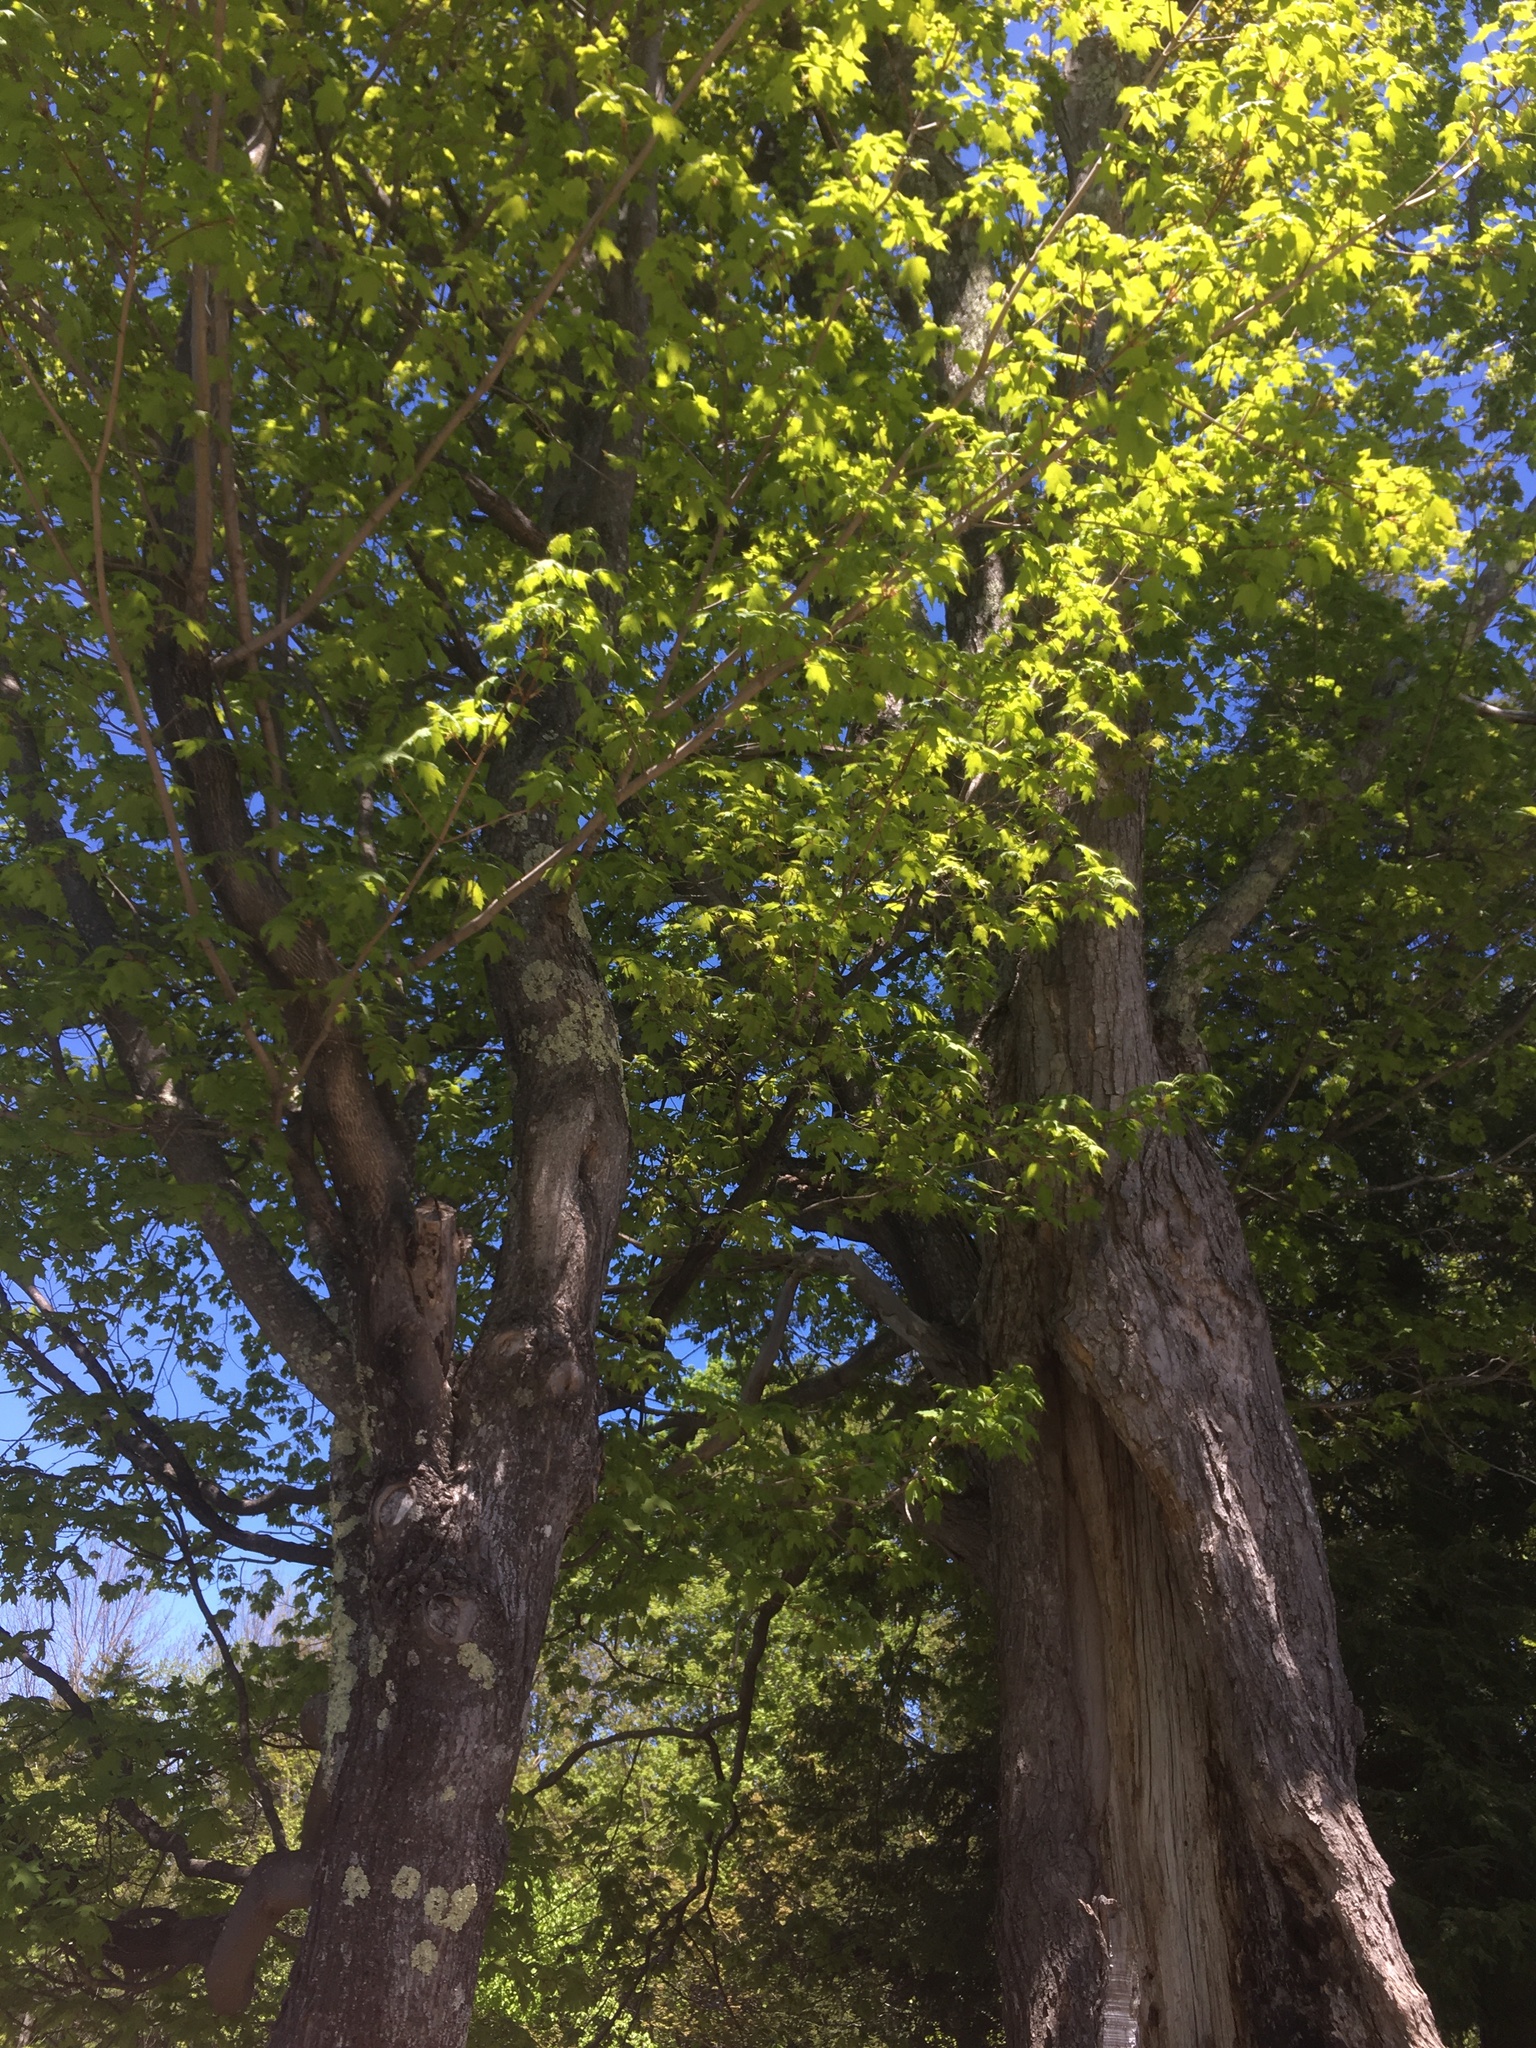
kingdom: Plantae
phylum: Tracheophyta
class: Magnoliopsida
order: Sapindales
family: Sapindaceae
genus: Acer
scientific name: Acer saccharum
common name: Sugar maple
